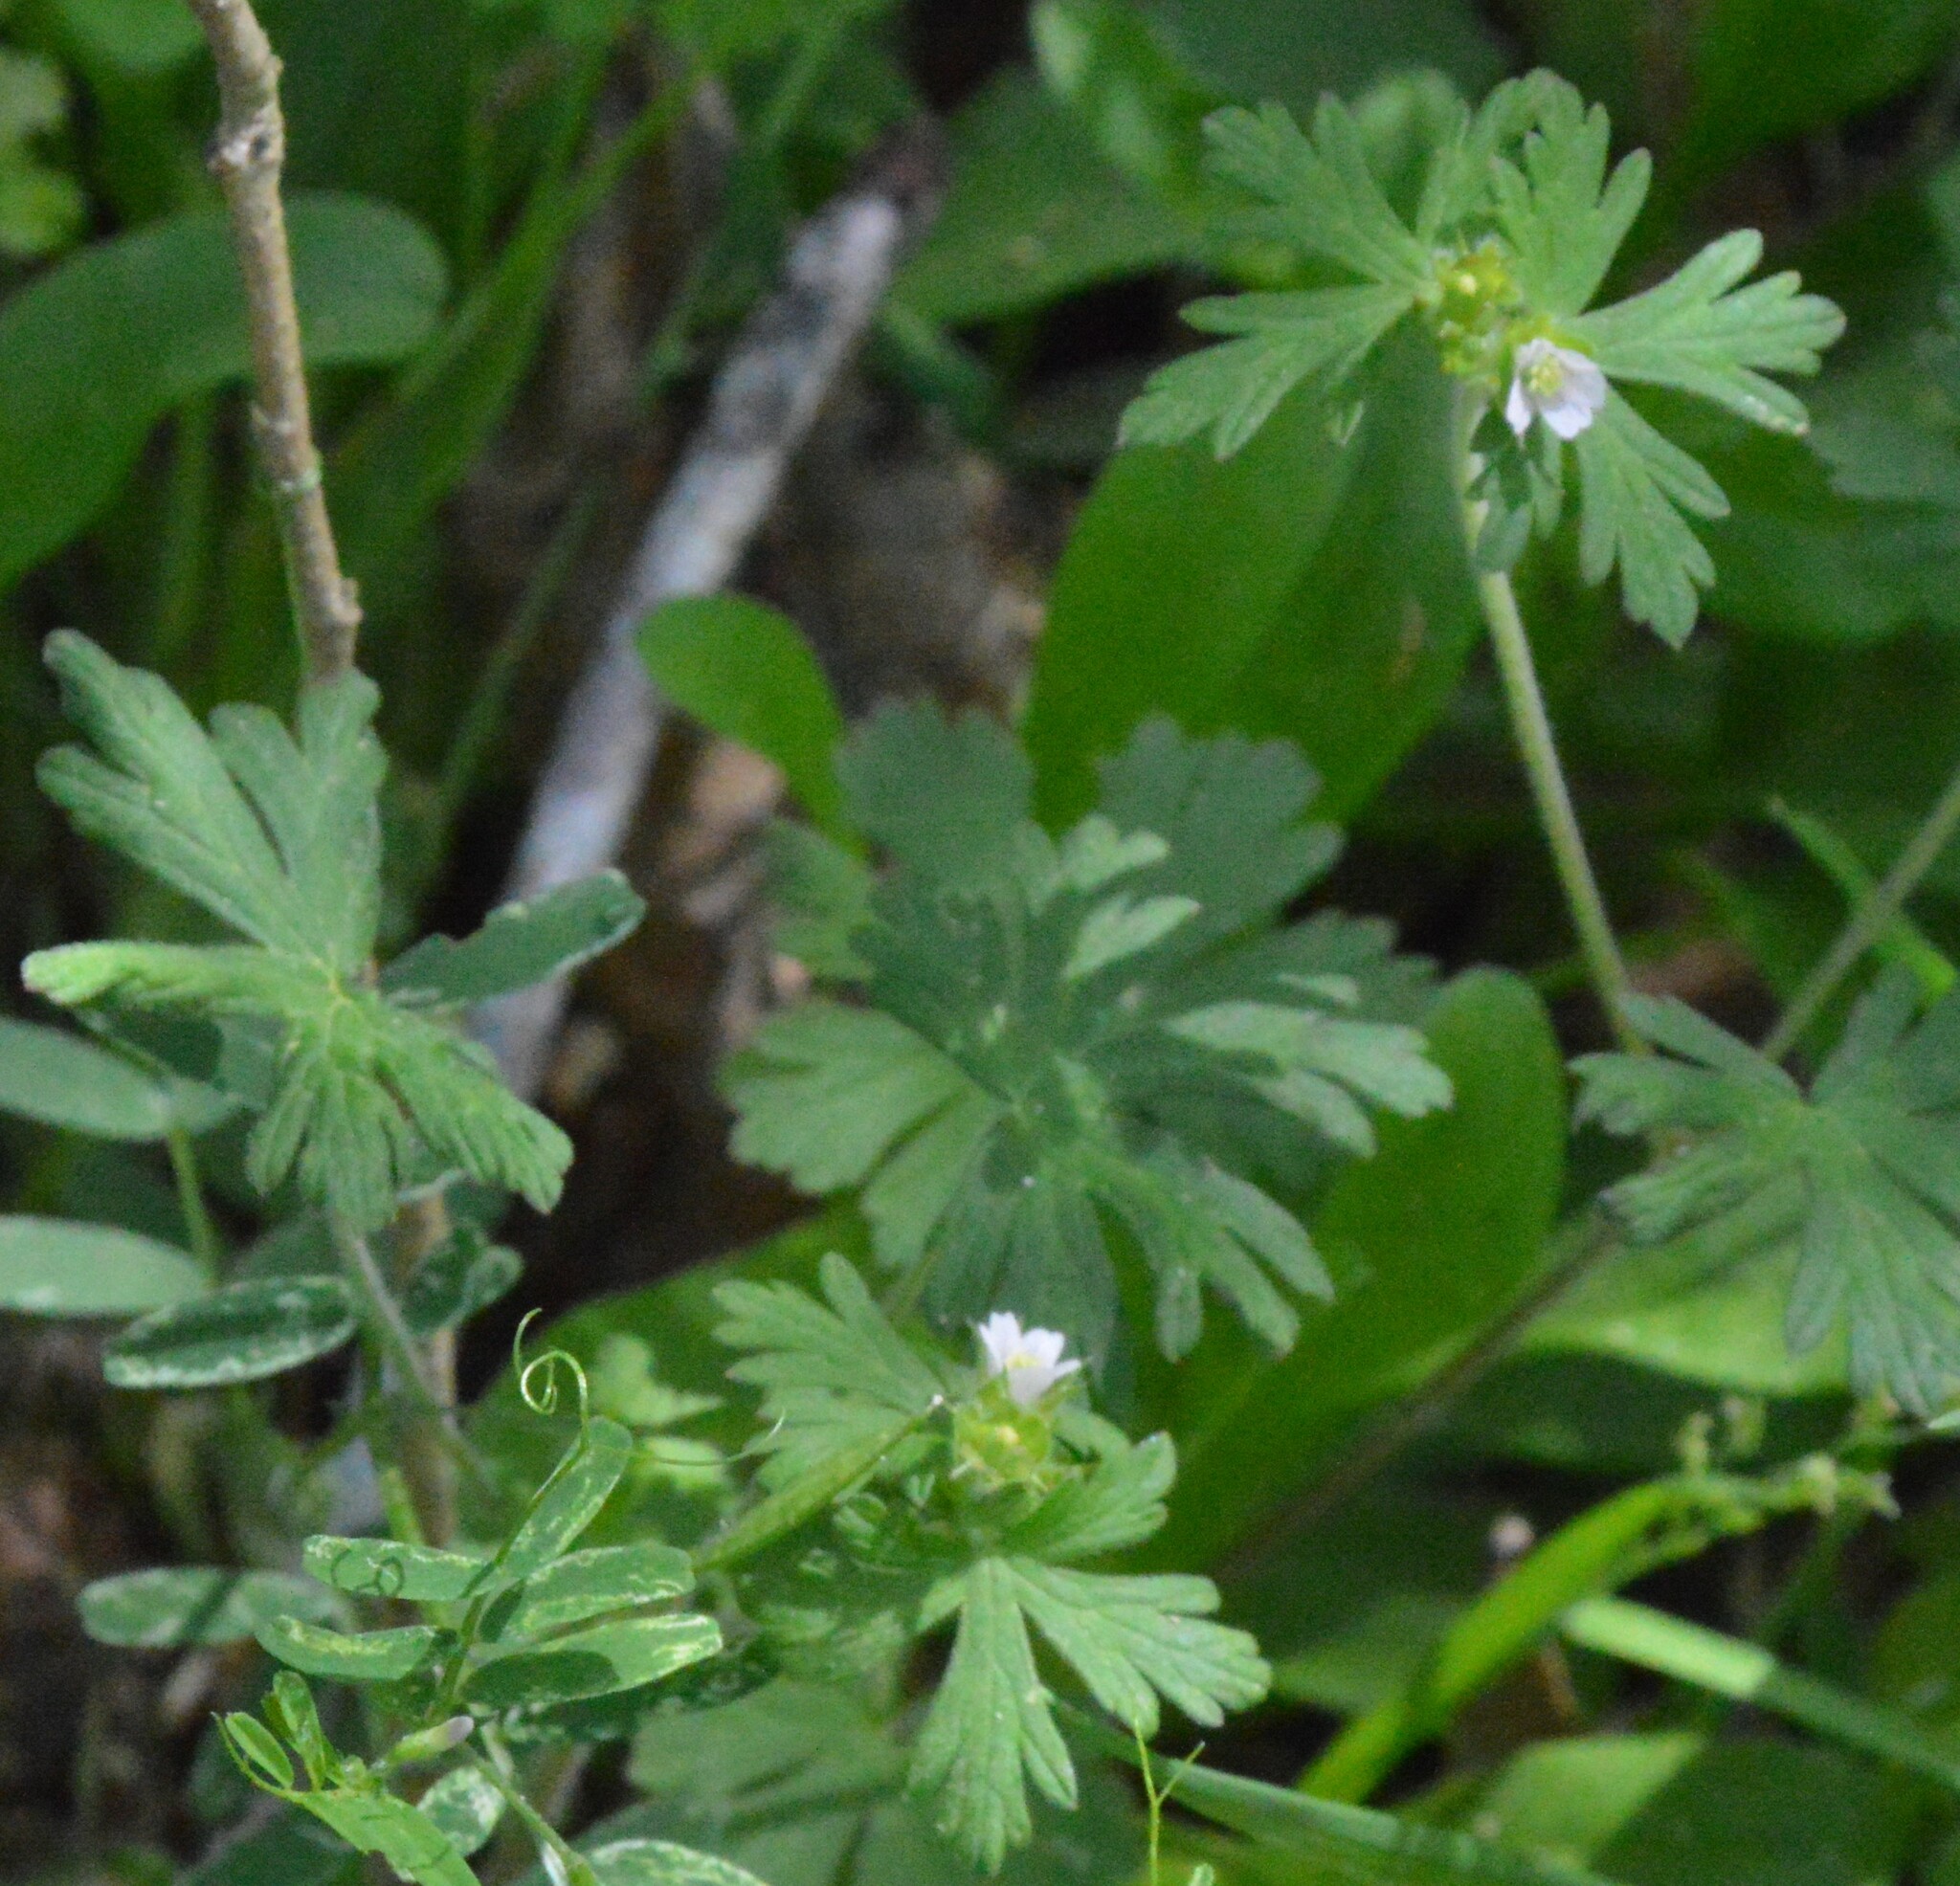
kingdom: Plantae
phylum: Tracheophyta
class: Magnoliopsida
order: Geraniales
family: Geraniaceae
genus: Geranium
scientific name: Geranium carolinianum
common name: Carolina crane's-bill
